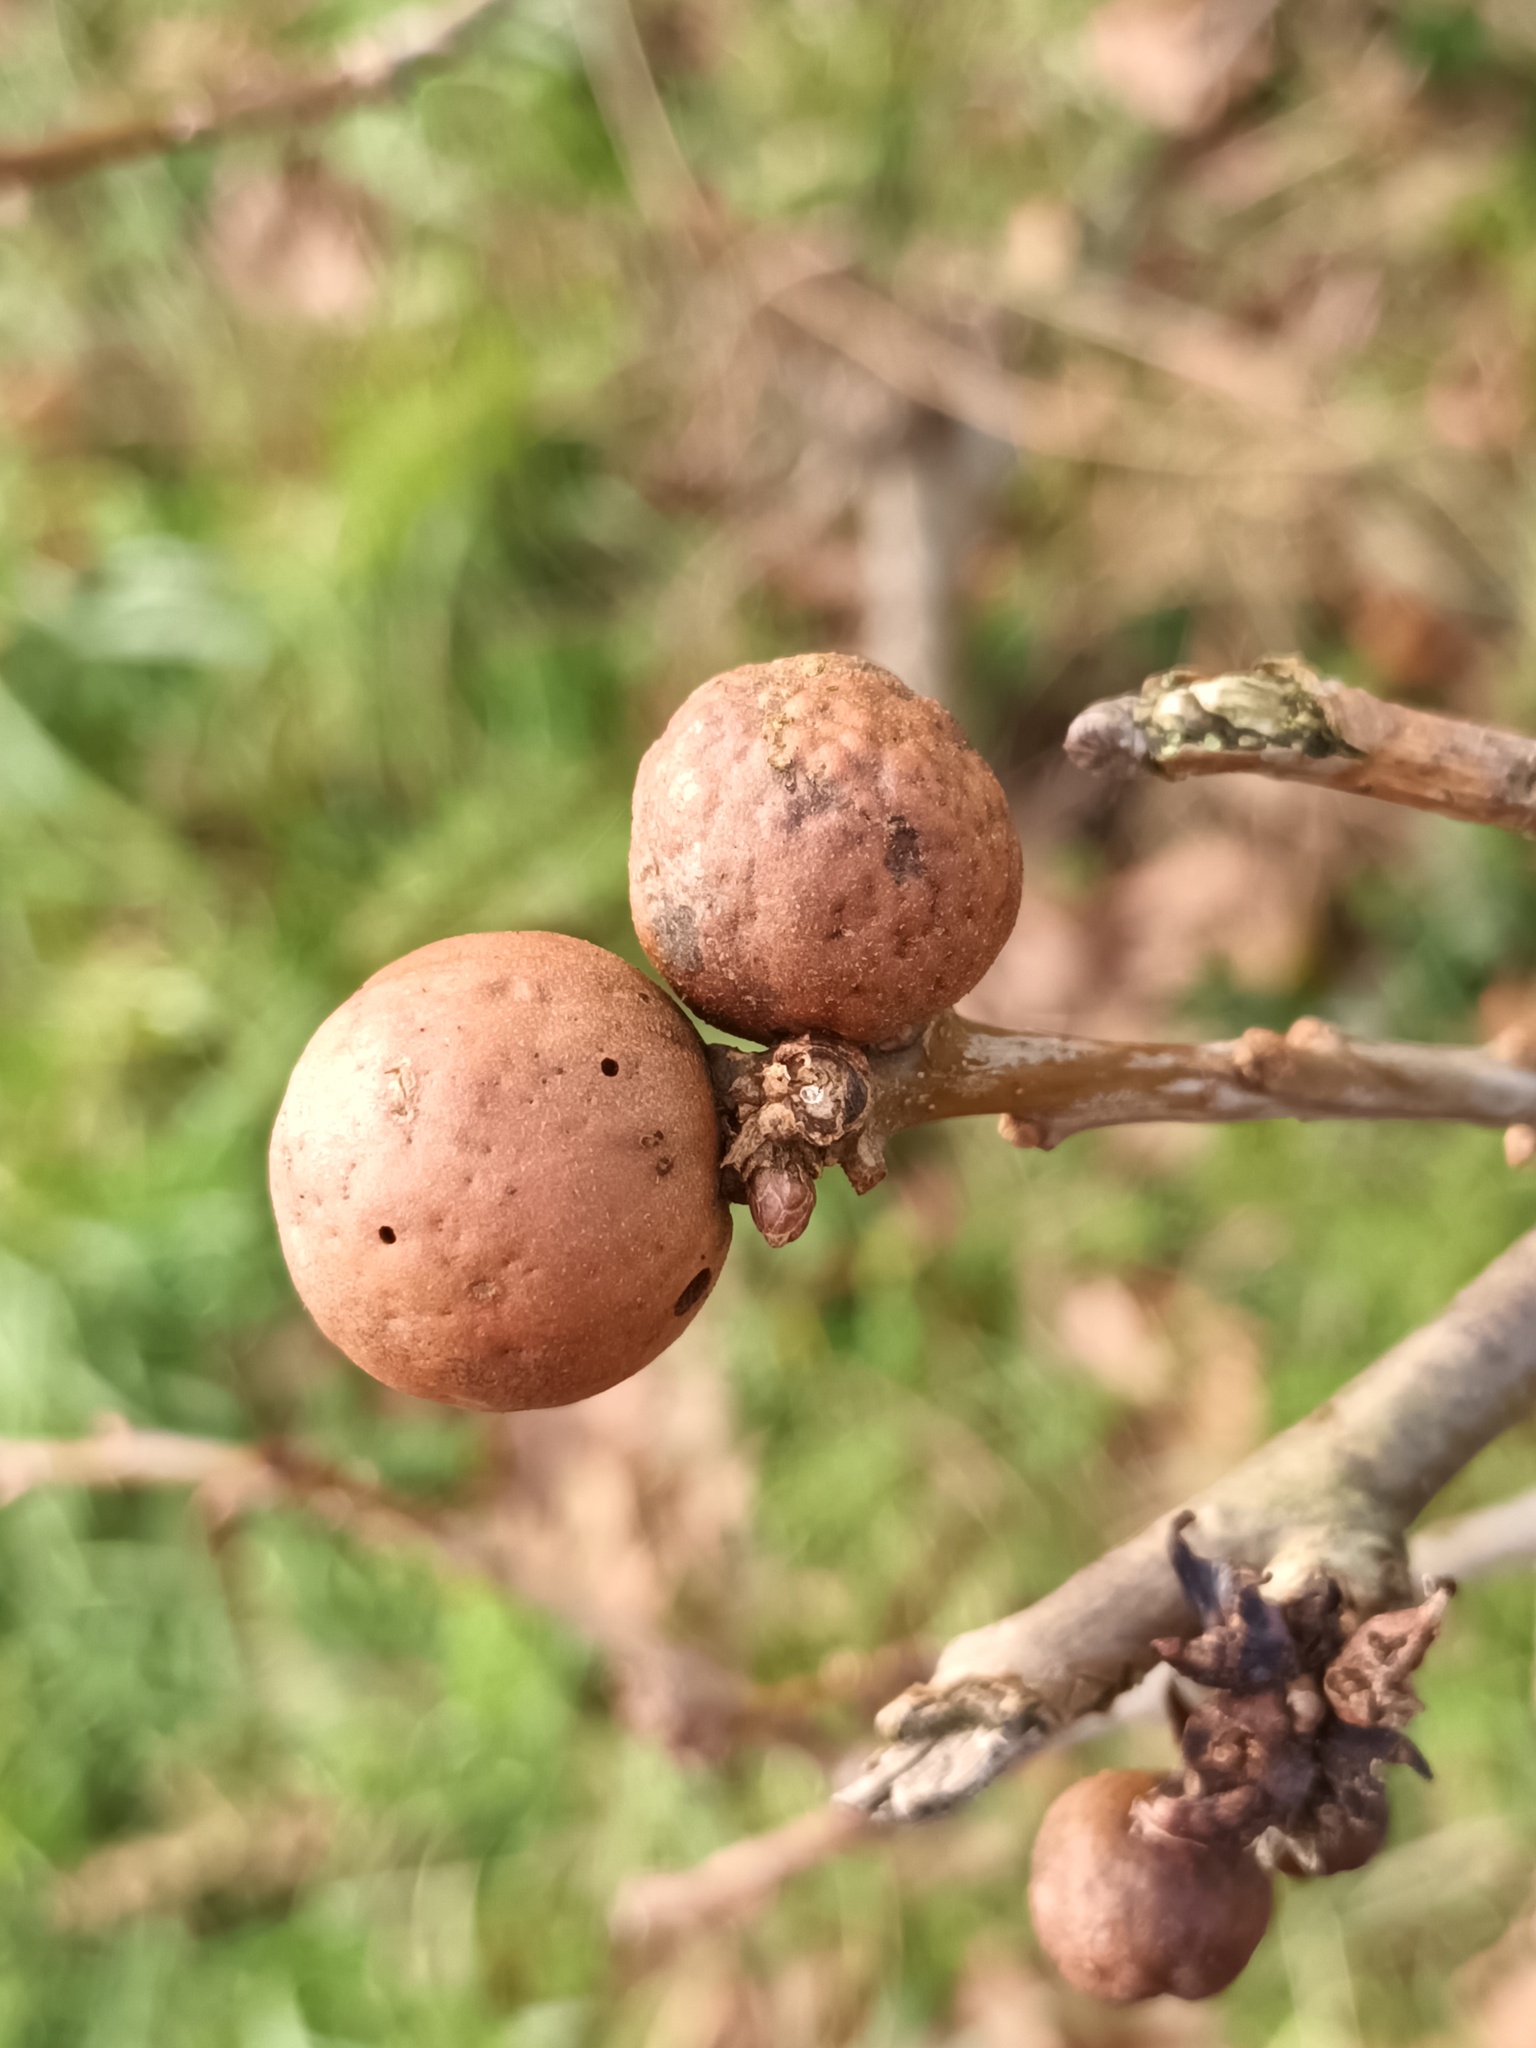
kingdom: Animalia
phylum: Arthropoda
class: Insecta
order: Hymenoptera
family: Cynipidae
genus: Andricus
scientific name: Andricus kollari
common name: Marble gall
